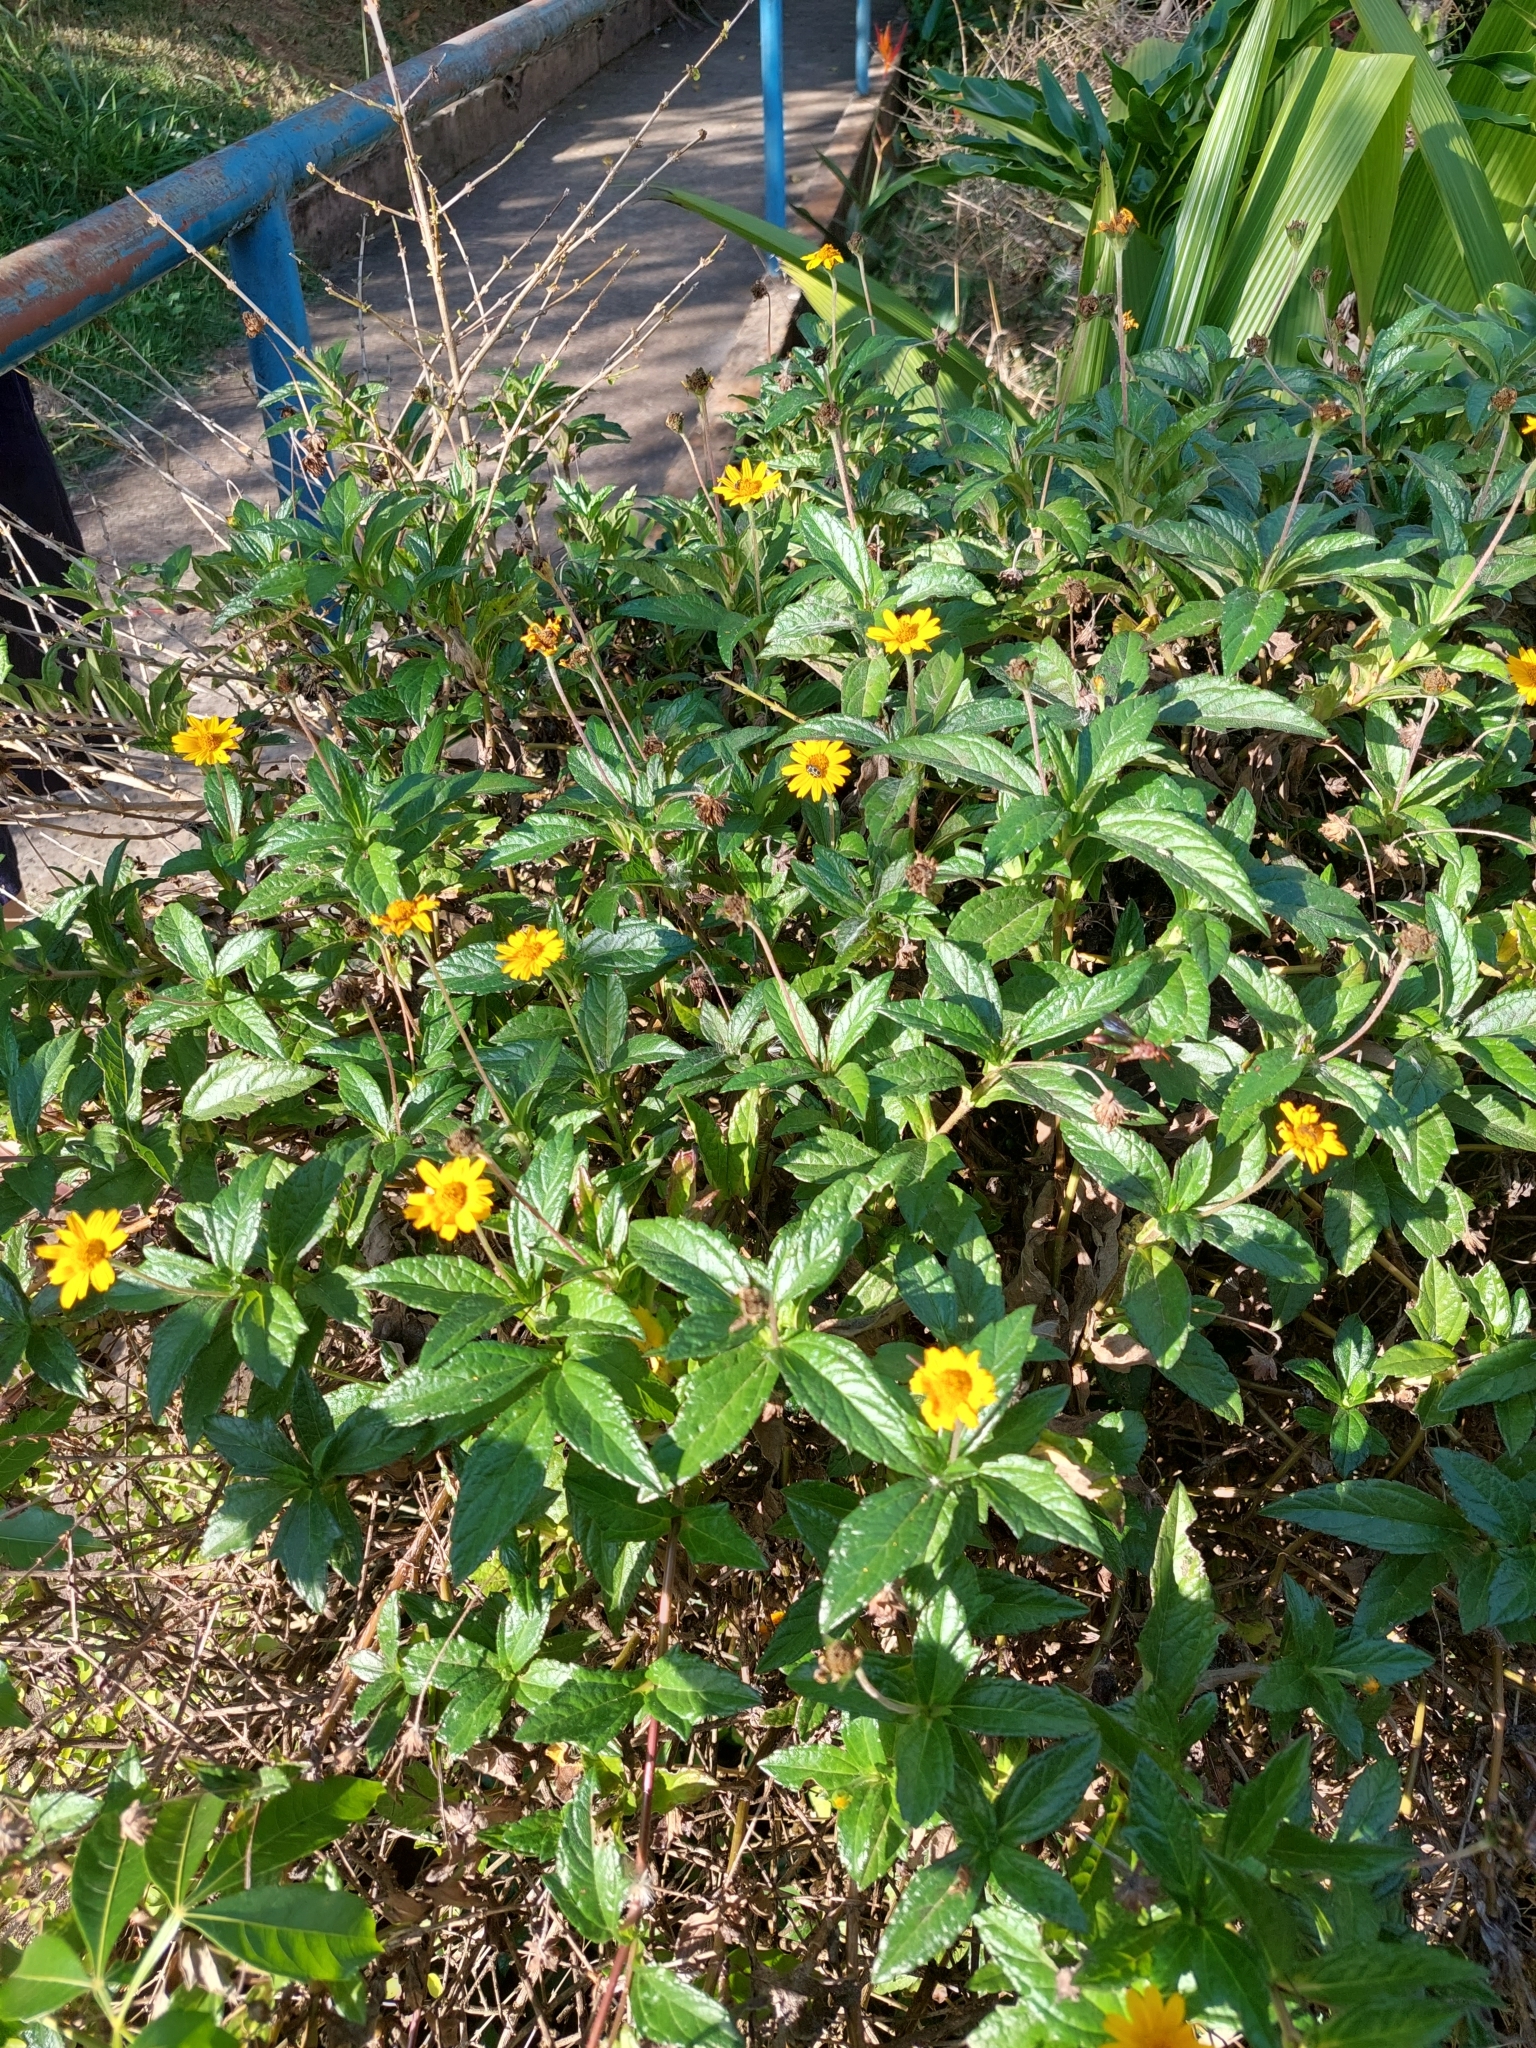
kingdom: Plantae
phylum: Tracheophyta
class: Magnoliopsida
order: Asterales
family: Asteraceae
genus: Sphagneticola
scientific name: Sphagneticola trilobata
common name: Bay biscayne creeping-oxeye
